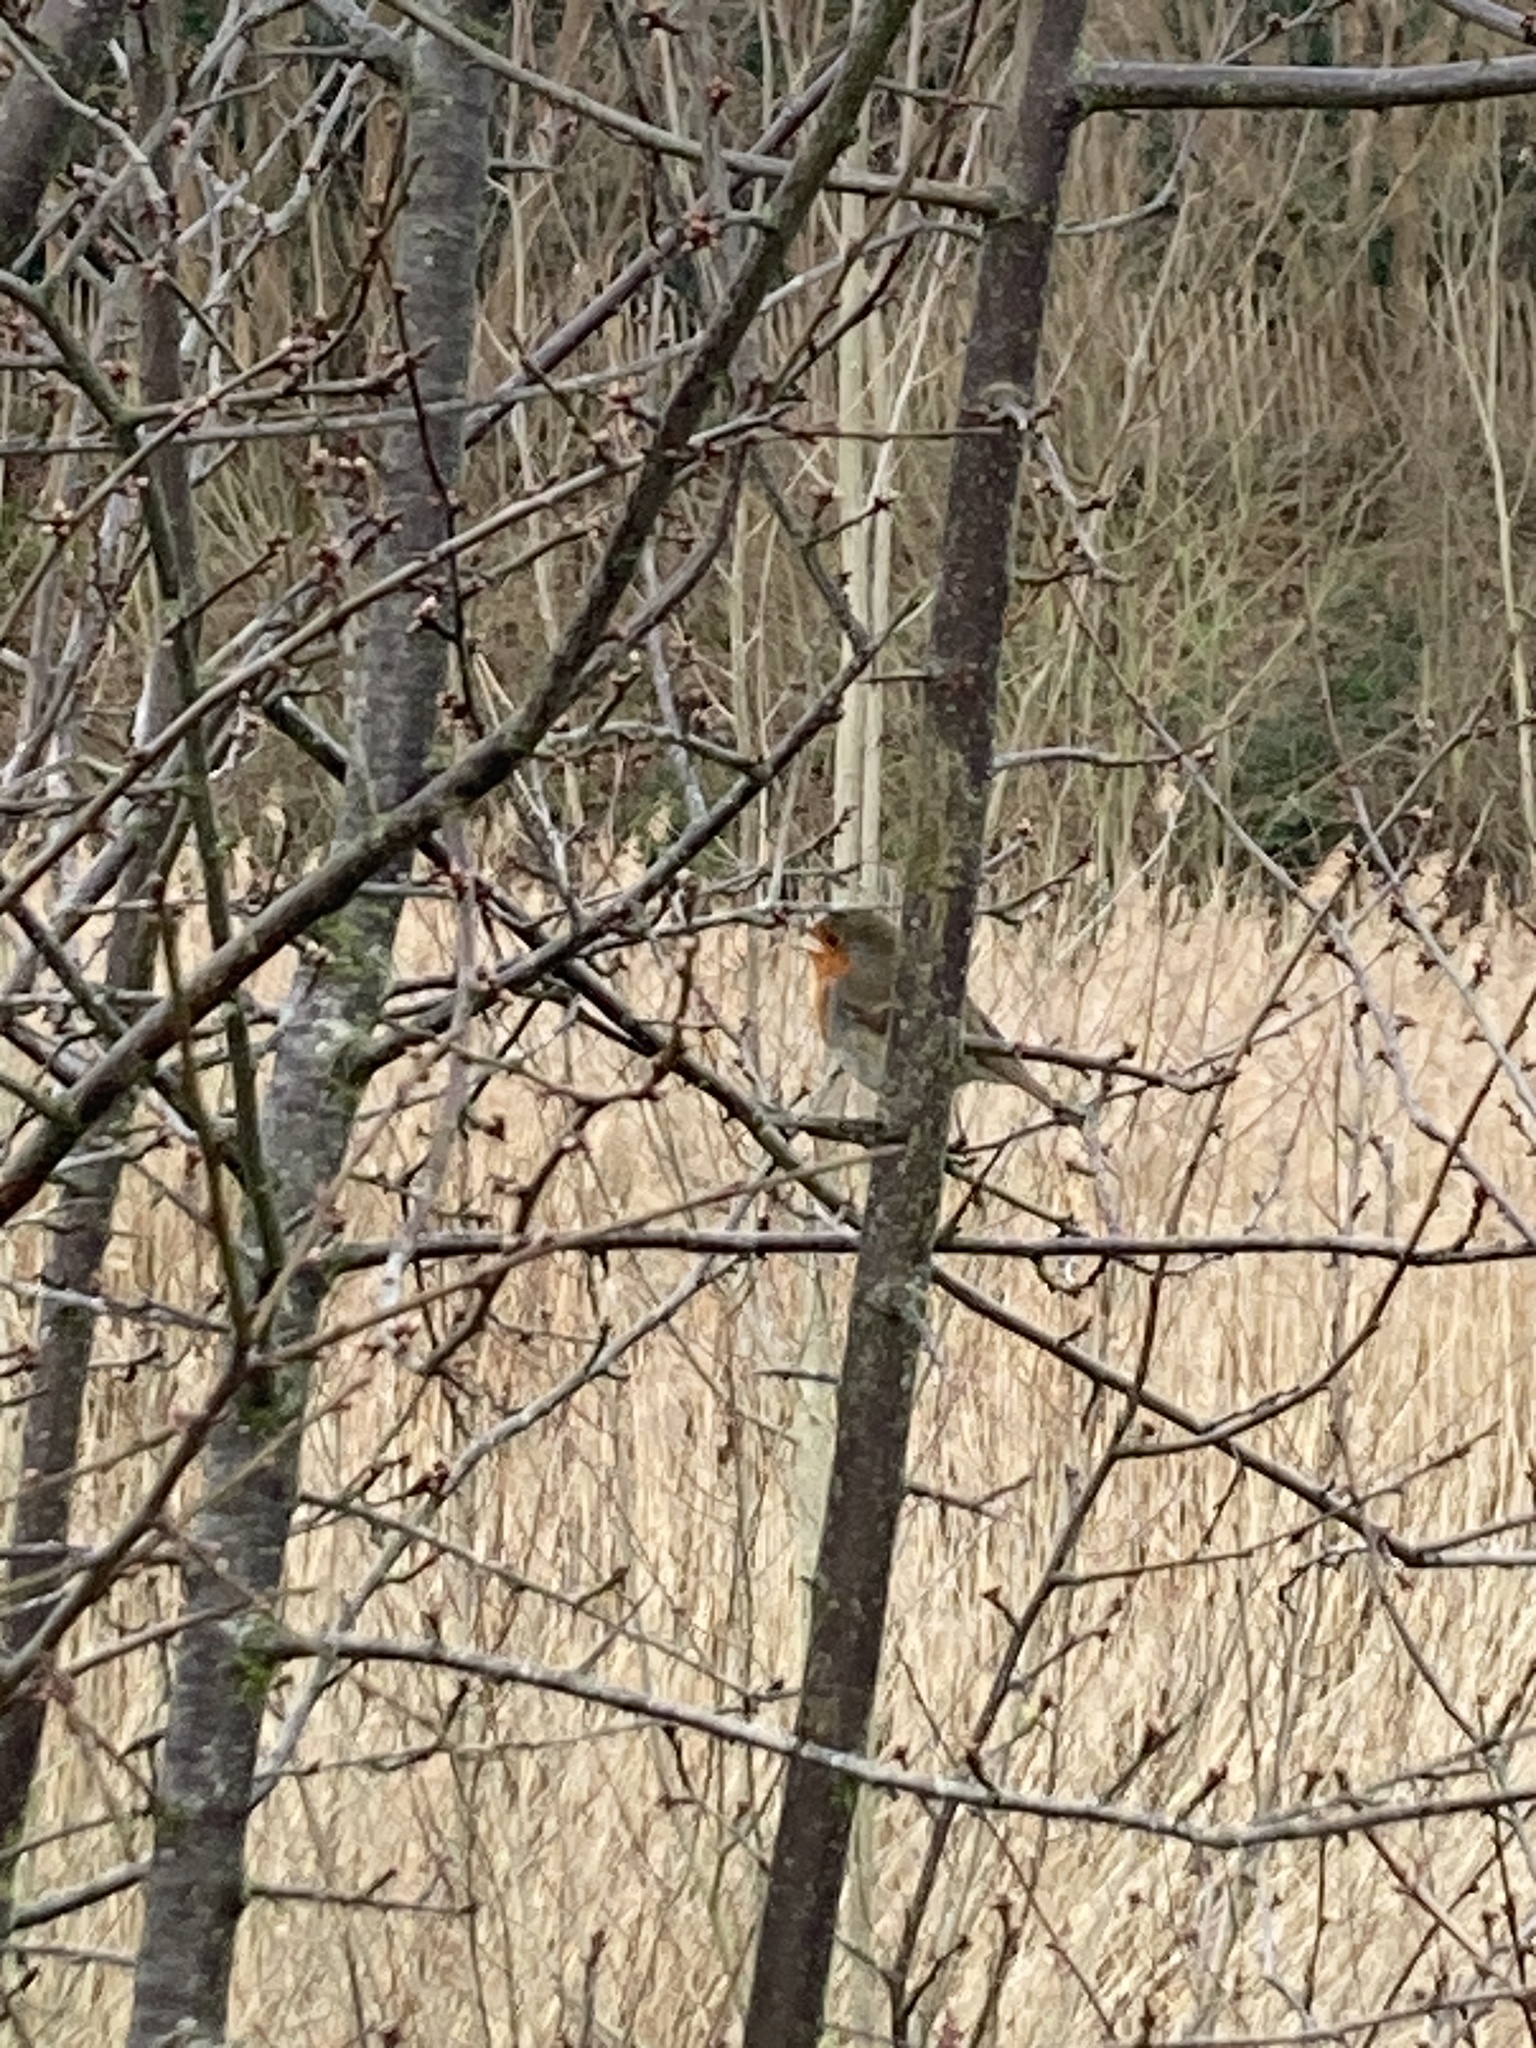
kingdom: Animalia
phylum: Chordata
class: Aves
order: Passeriformes
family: Muscicapidae
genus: Erithacus
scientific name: Erithacus rubecula
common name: European robin
